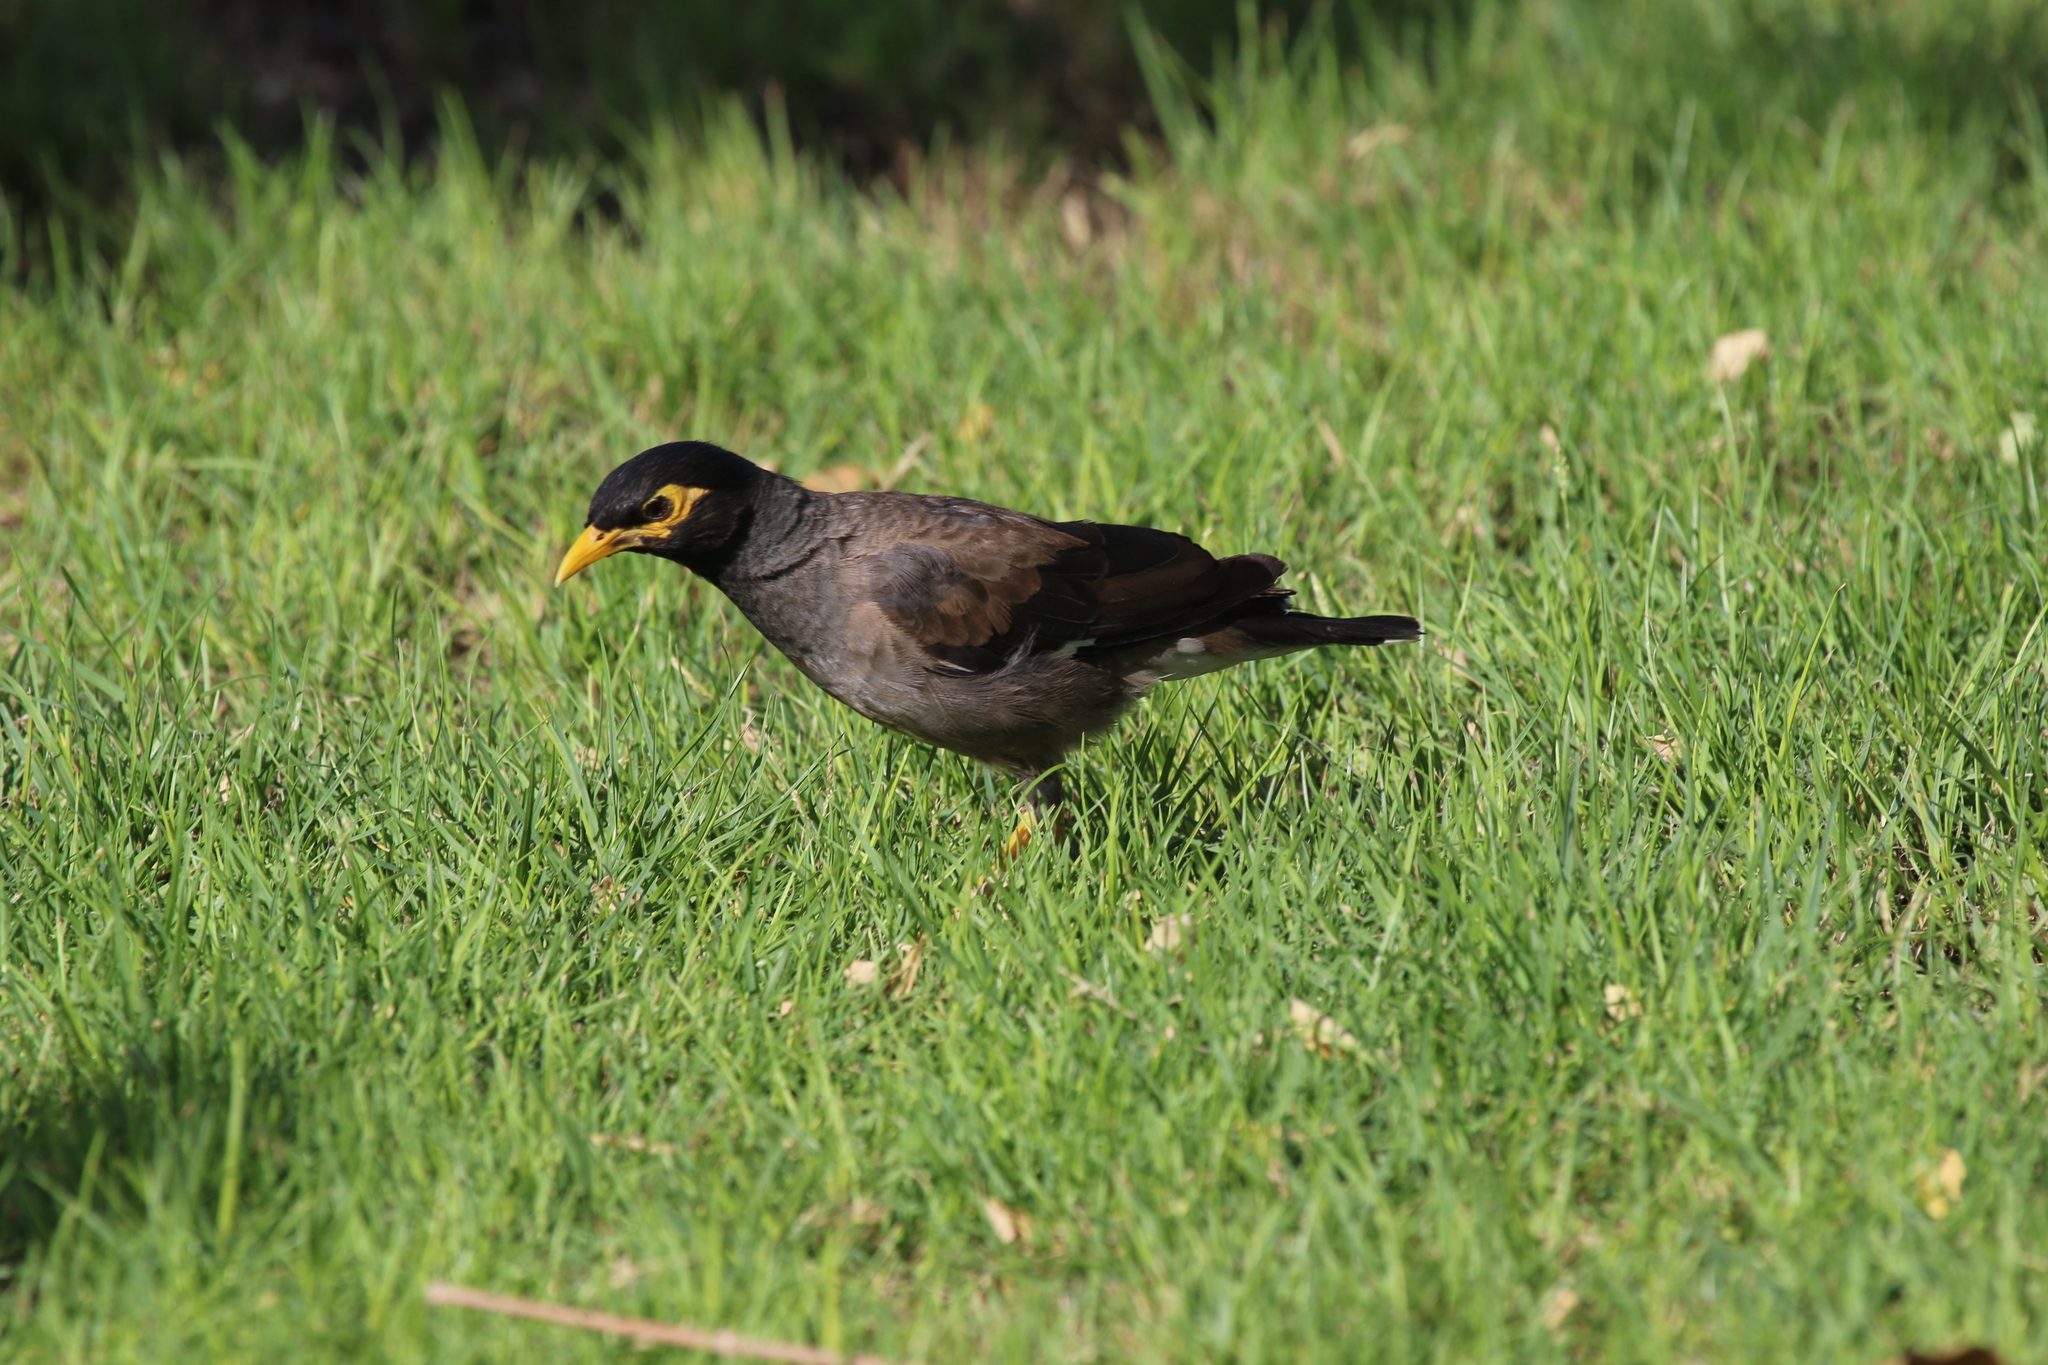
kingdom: Animalia
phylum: Chordata
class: Aves
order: Passeriformes
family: Sturnidae
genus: Acridotheres
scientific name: Acridotheres tristis
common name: Common myna
